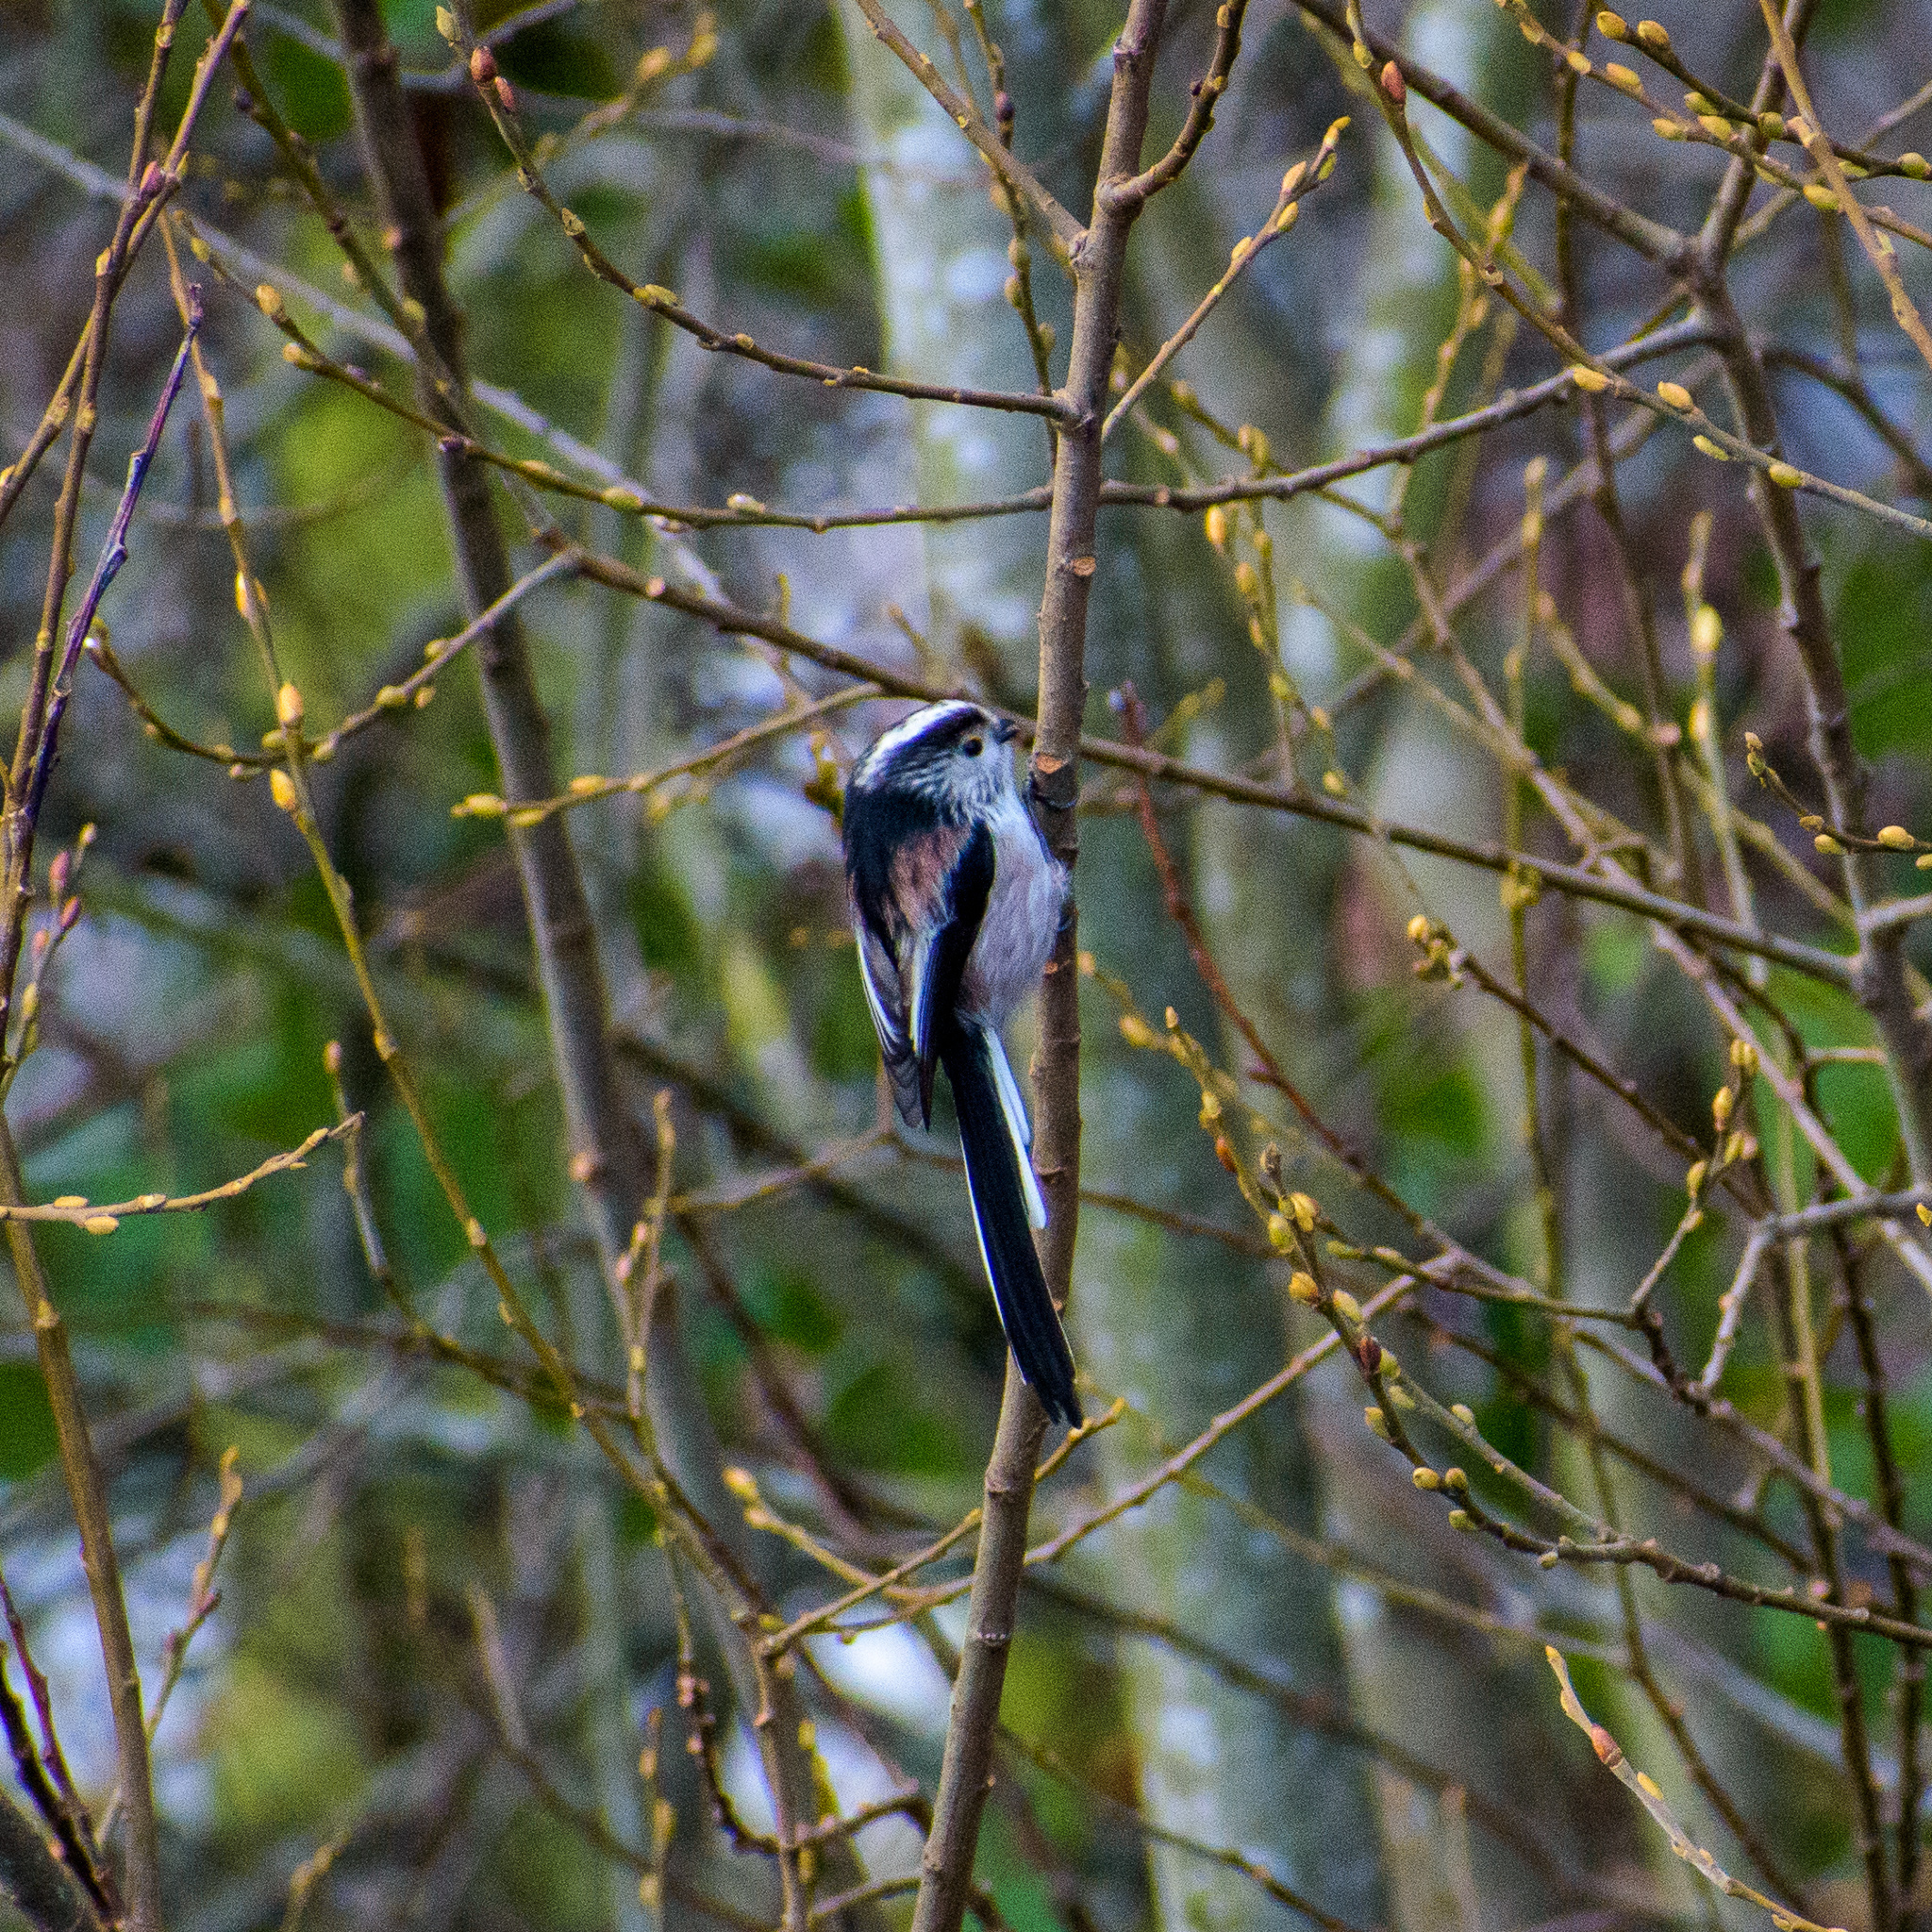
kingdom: Animalia
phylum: Chordata
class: Aves
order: Passeriformes
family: Aegithalidae
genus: Aegithalos
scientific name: Aegithalos caudatus
